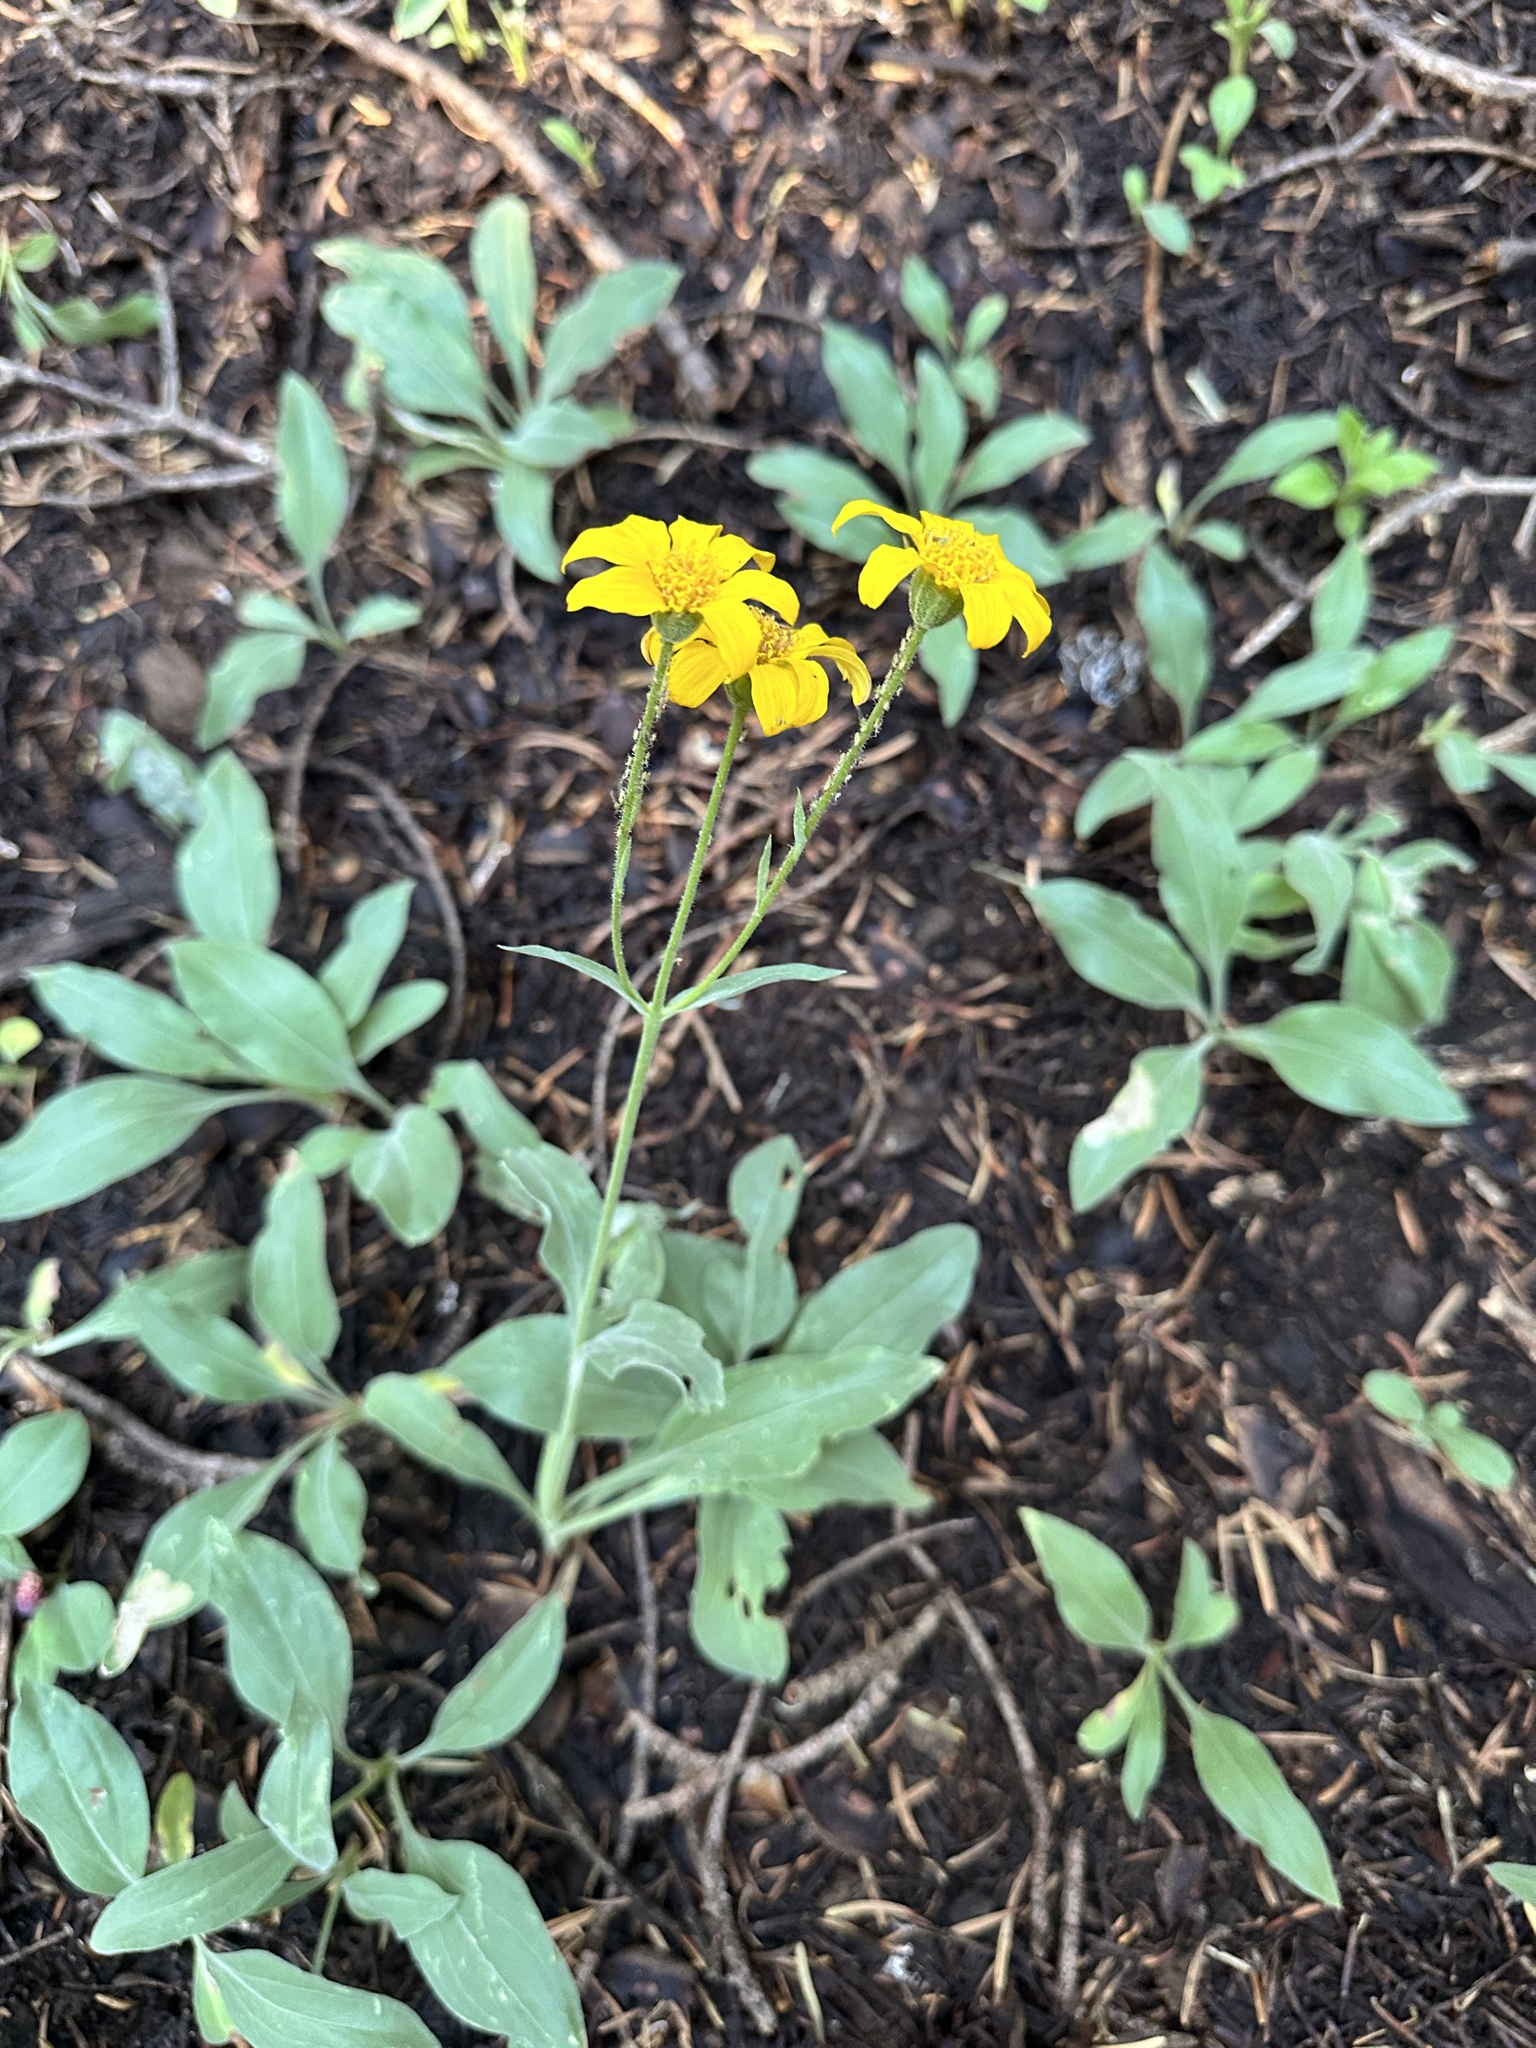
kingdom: Plantae
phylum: Tracheophyta
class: Magnoliopsida
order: Asterales
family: Asteraceae
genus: Arnica
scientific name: Arnica dealbata
